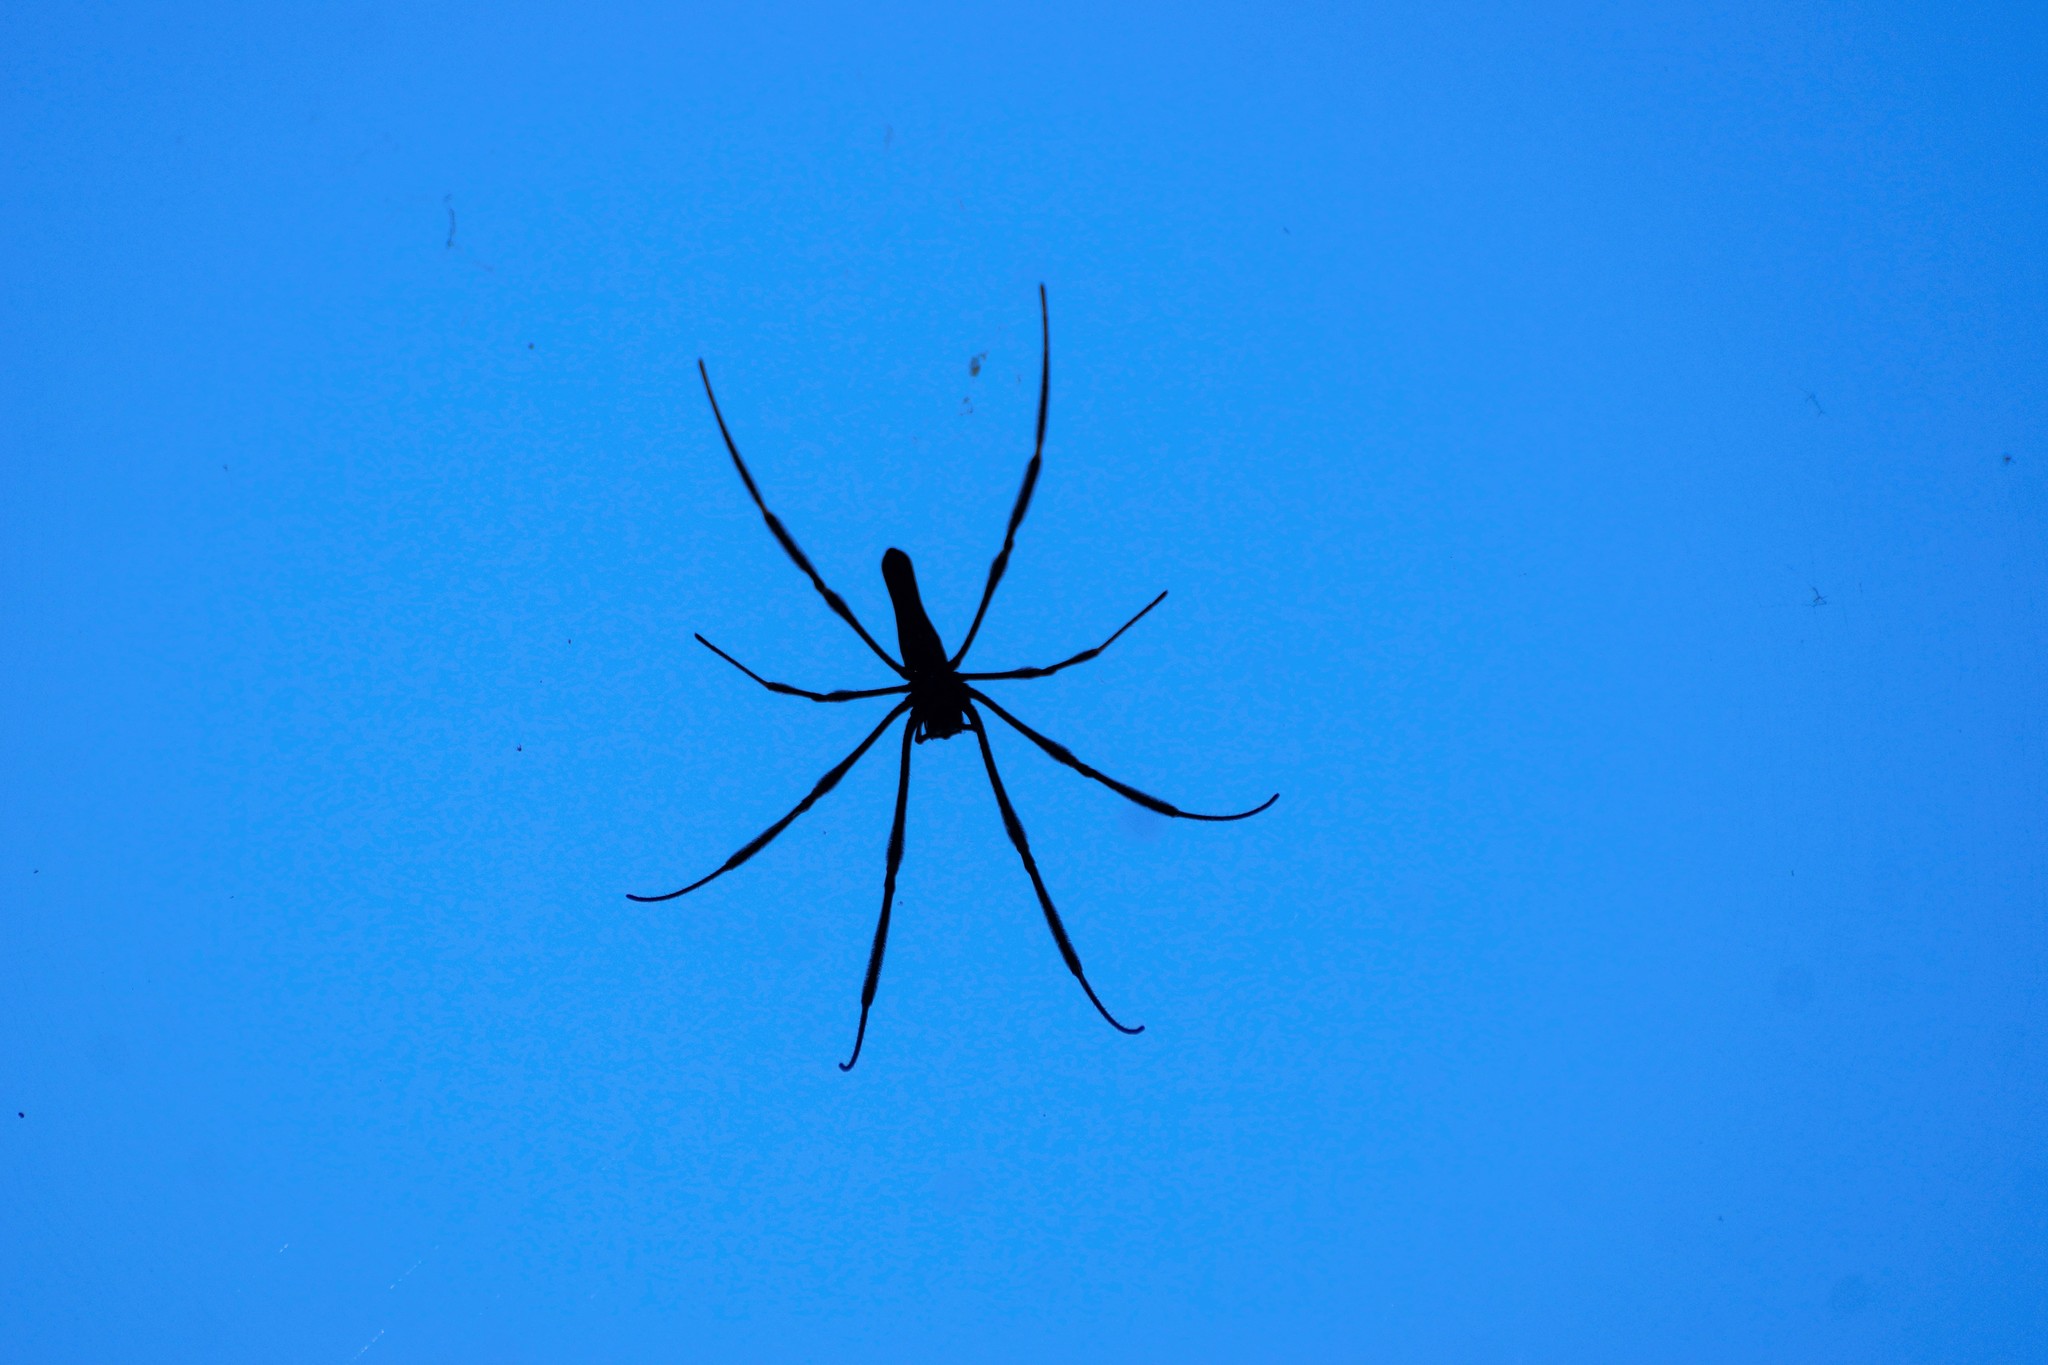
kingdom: Animalia
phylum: Arthropoda
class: Arachnida
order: Araneae
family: Araneidae
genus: Nephila
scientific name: Nephila pilipes
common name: Giant golden orb weaver
